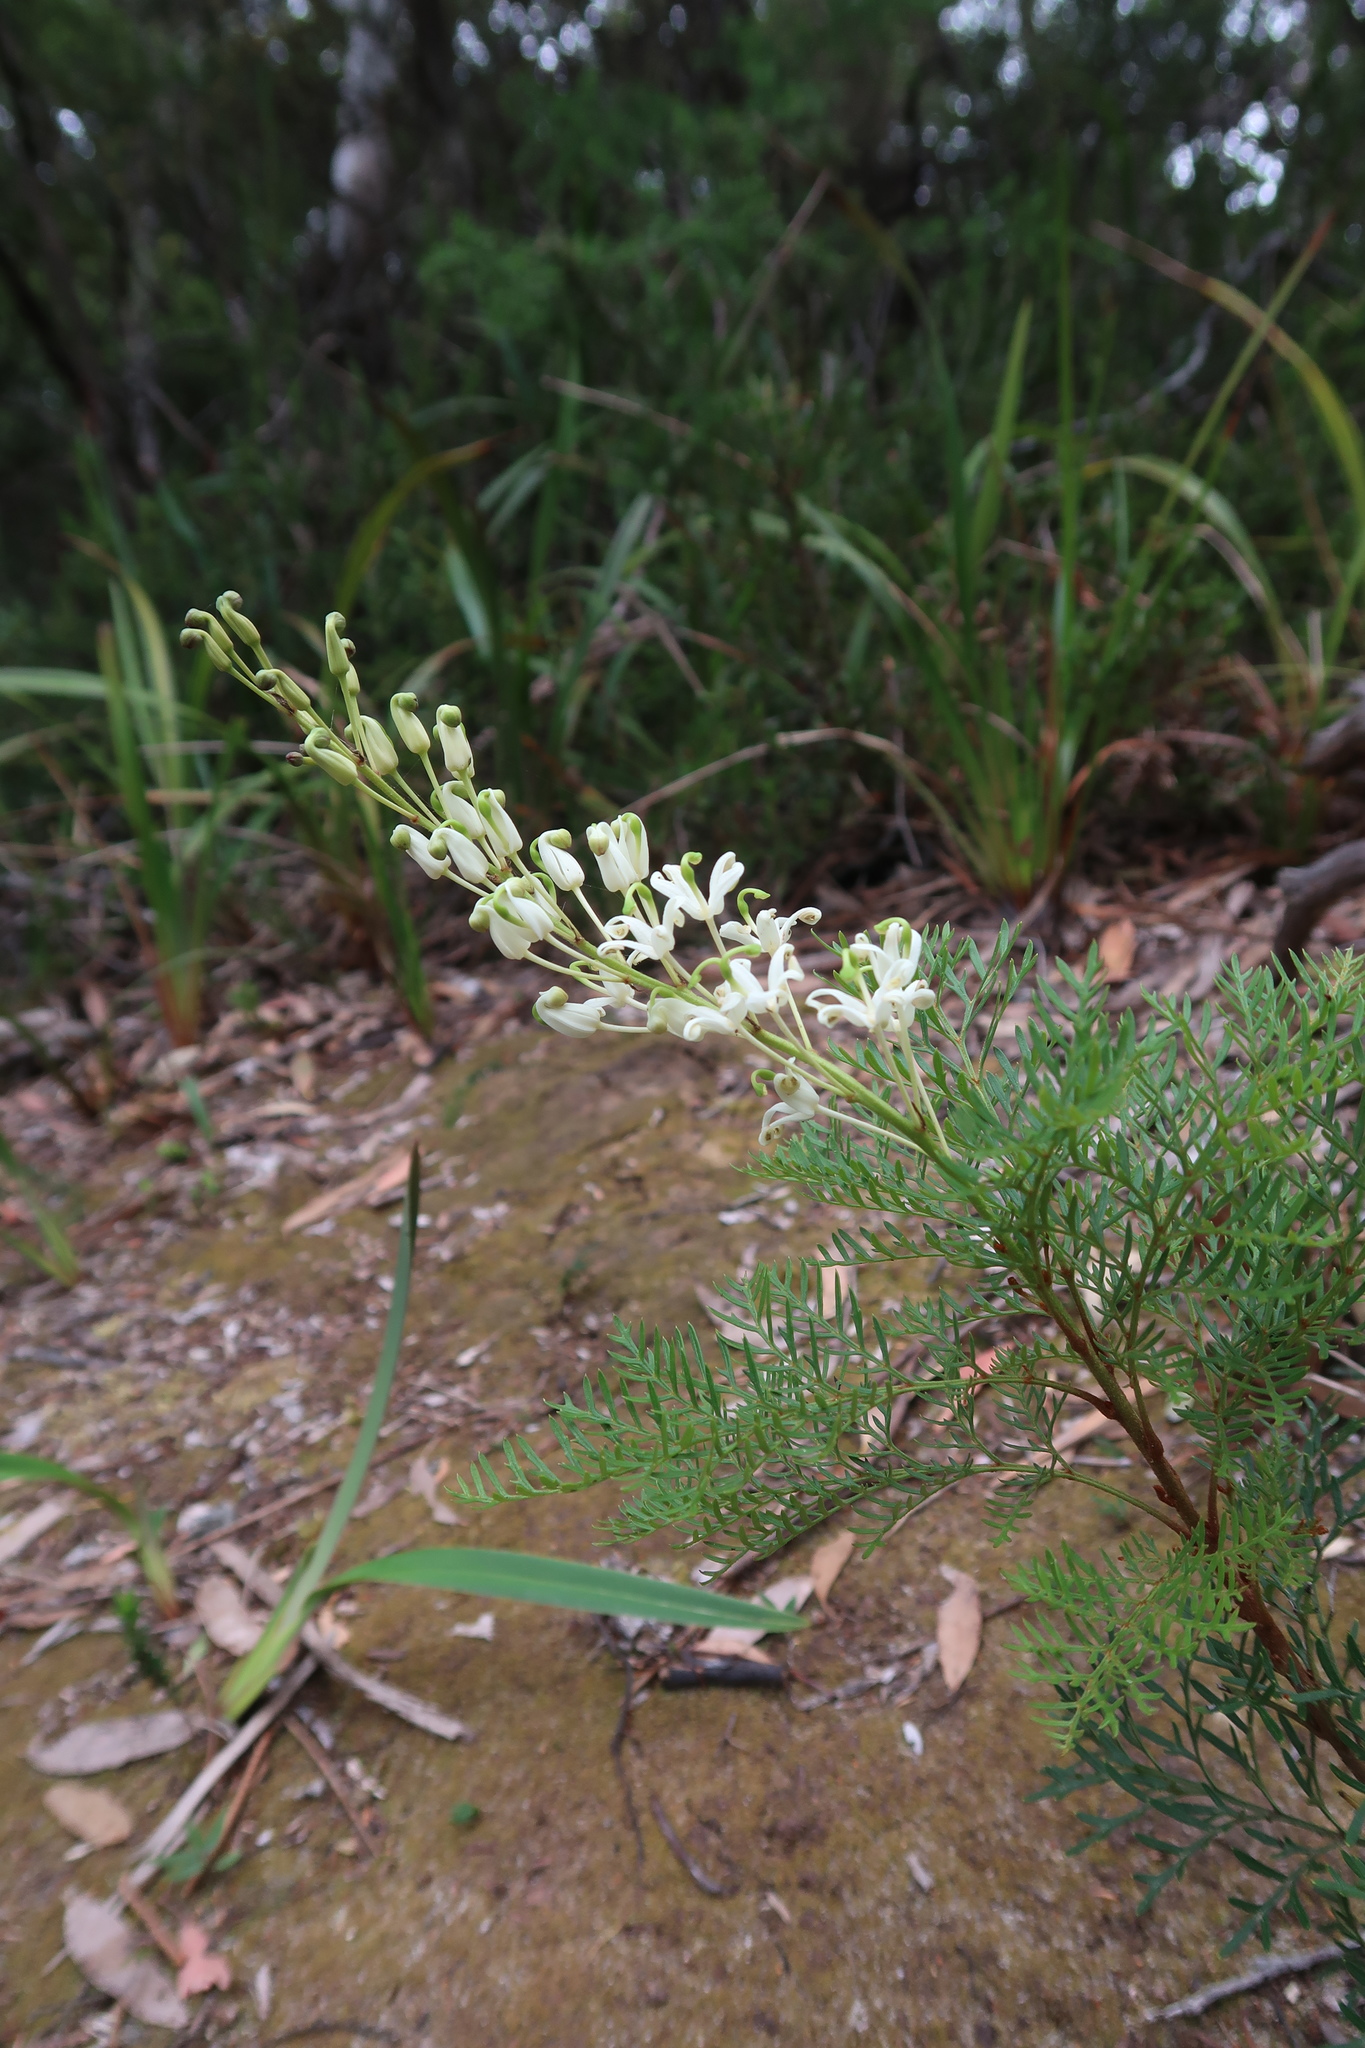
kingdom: Plantae
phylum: Tracheophyta
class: Magnoliopsida
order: Proteales
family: Proteaceae
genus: Lomatia
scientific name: Lomatia tinctoria
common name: Guitar plant
